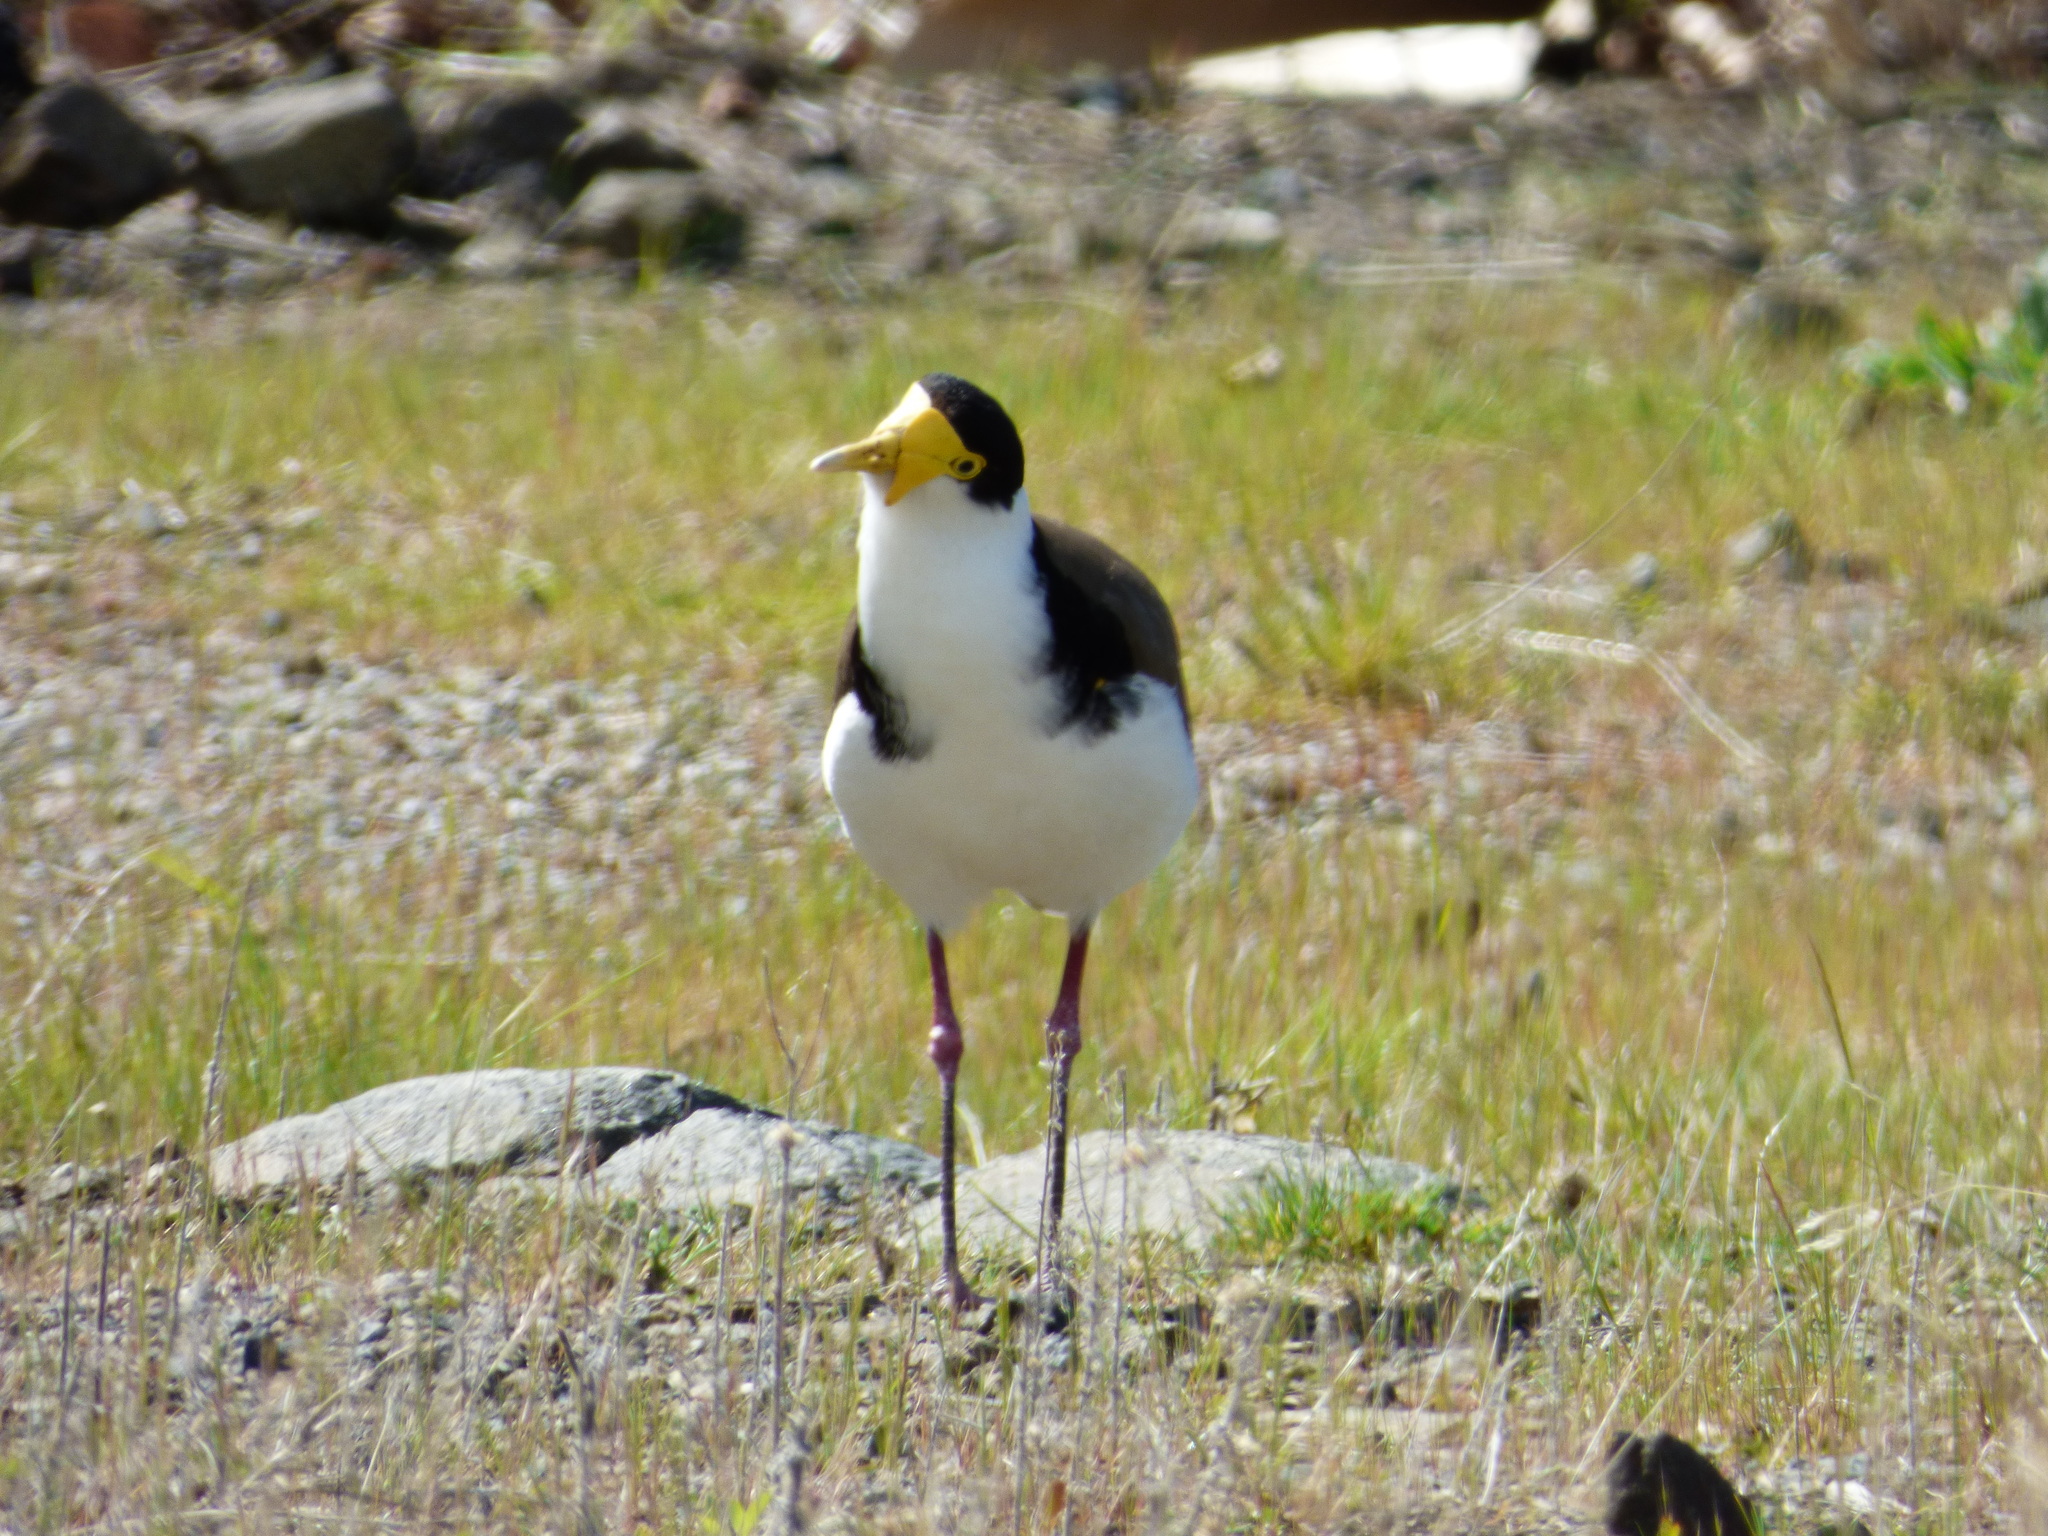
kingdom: Animalia
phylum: Chordata
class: Aves
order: Charadriiformes
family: Charadriidae
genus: Vanellus
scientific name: Vanellus miles
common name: Masked lapwing
